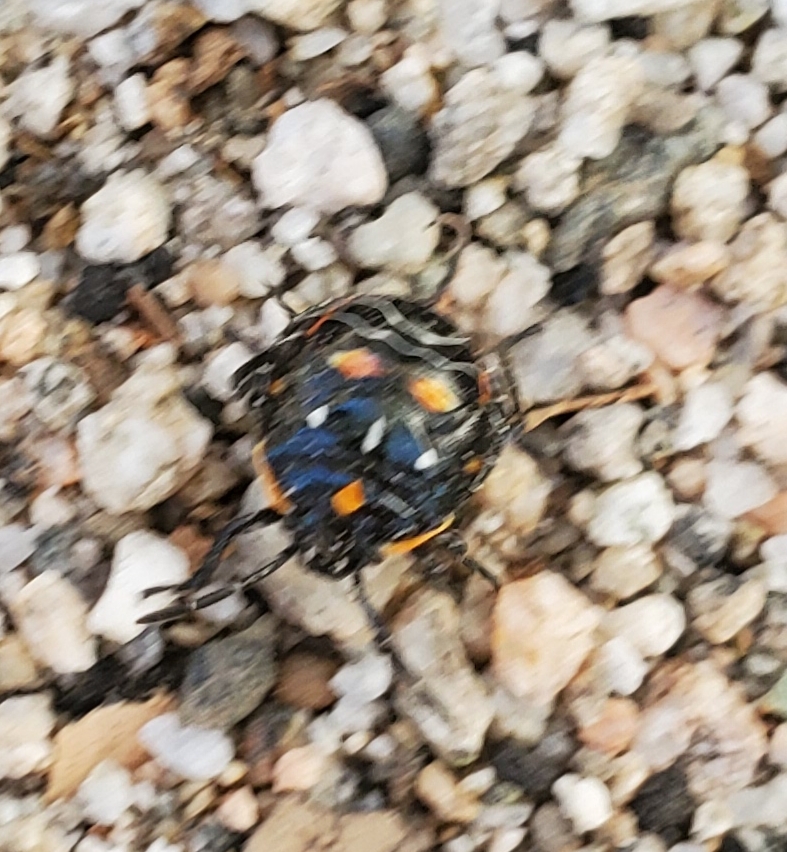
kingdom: Animalia
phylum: Arthropoda
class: Insecta
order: Hemiptera
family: Pentatomidae
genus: Murgantia
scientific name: Murgantia histrionica
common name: Harlequin bug
